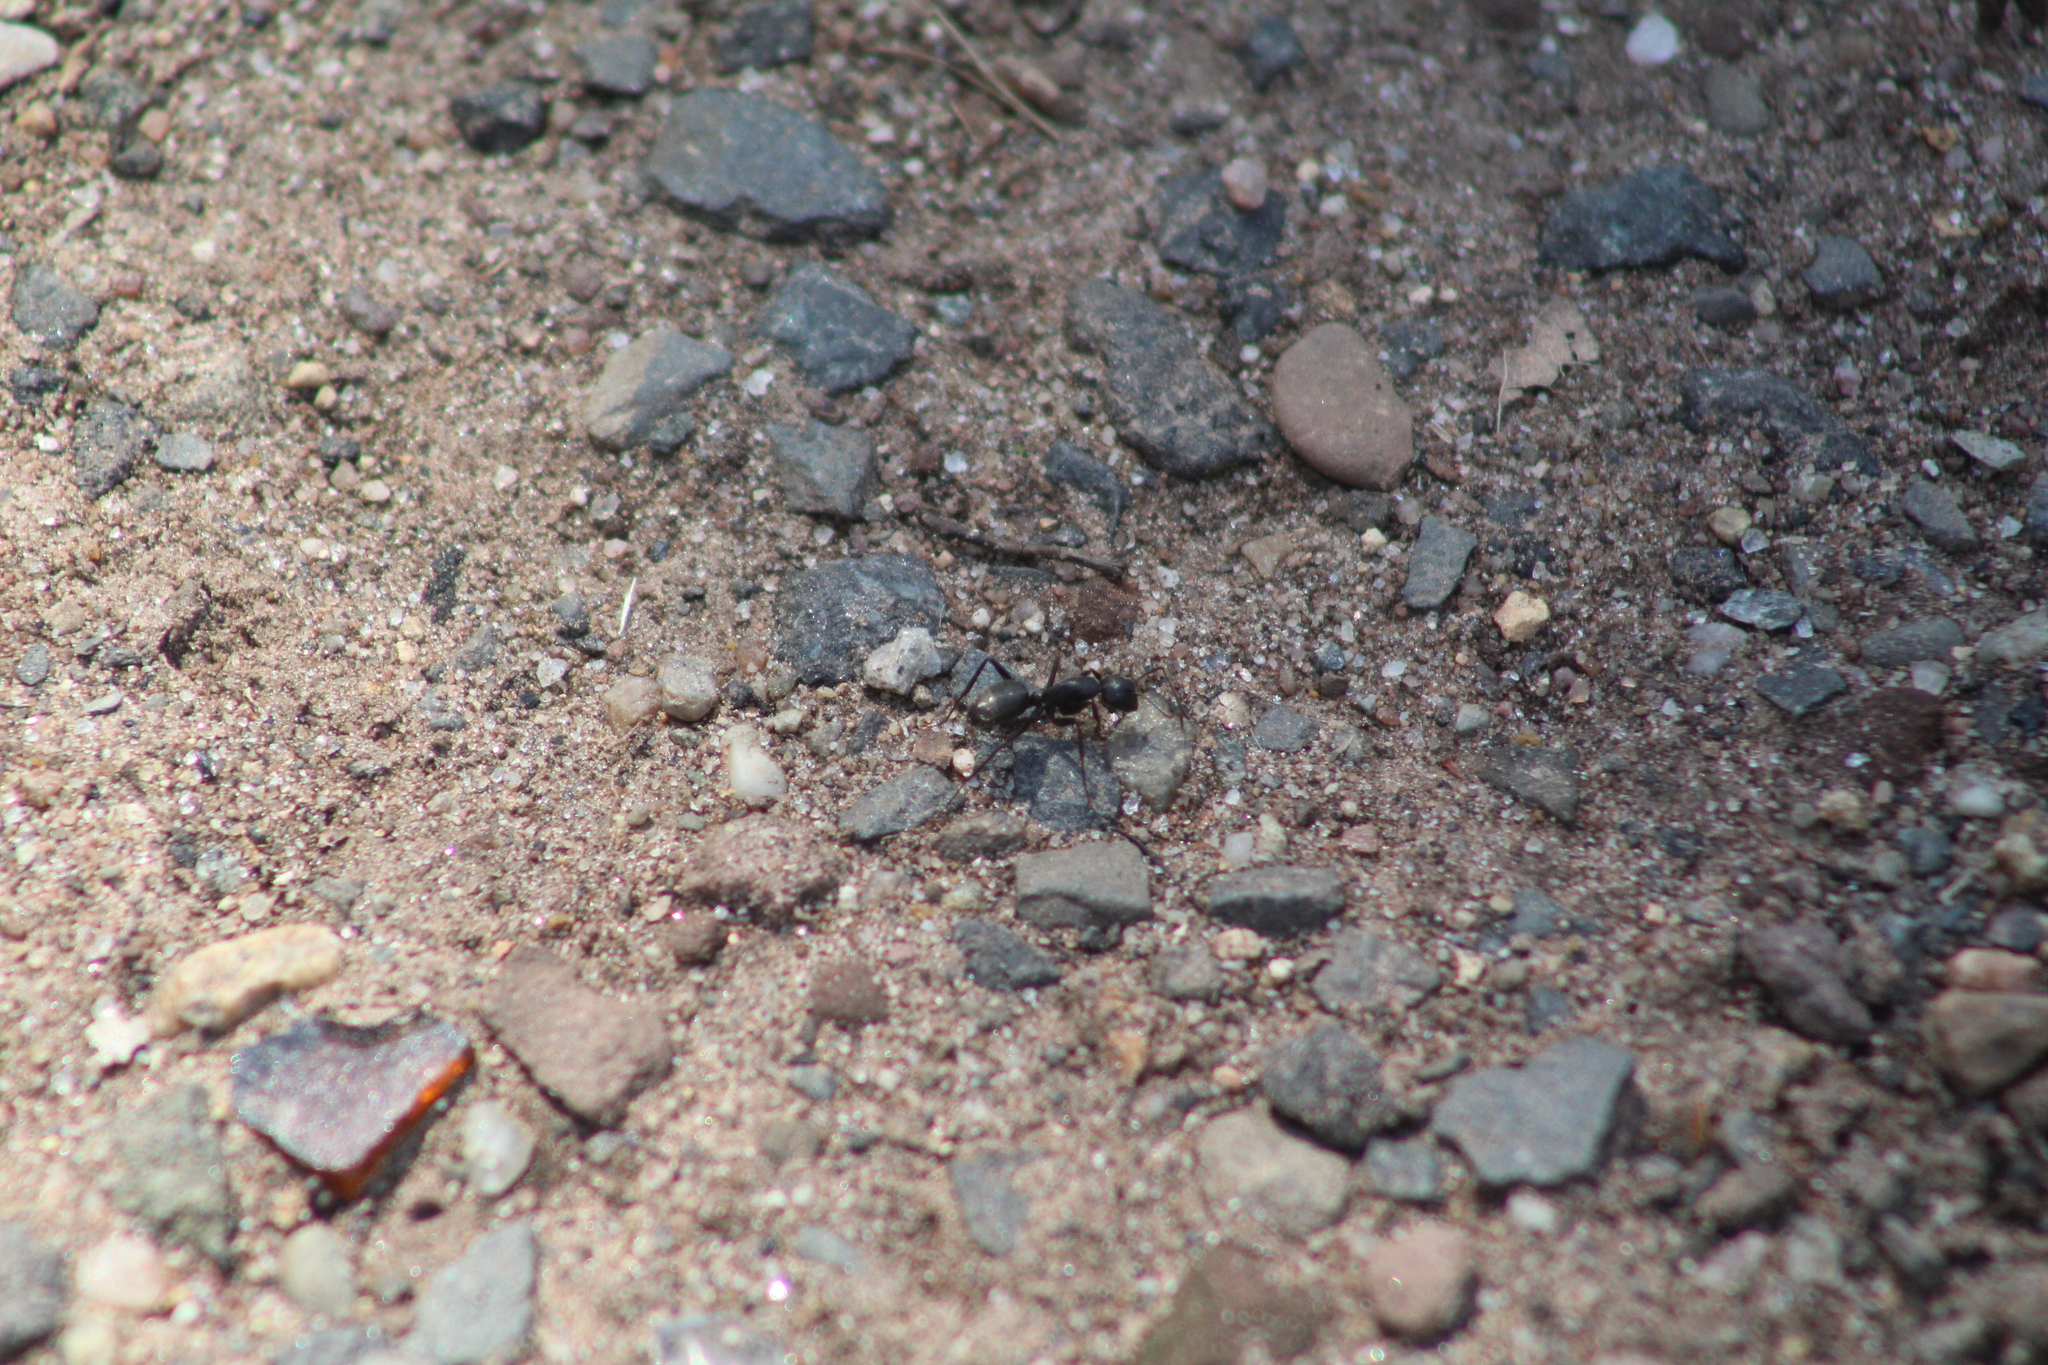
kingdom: Animalia
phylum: Arthropoda
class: Insecta
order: Hymenoptera
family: Formicidae
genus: Camponotus
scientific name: Camponotus pennsylvanicus
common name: Black carpenter ant
